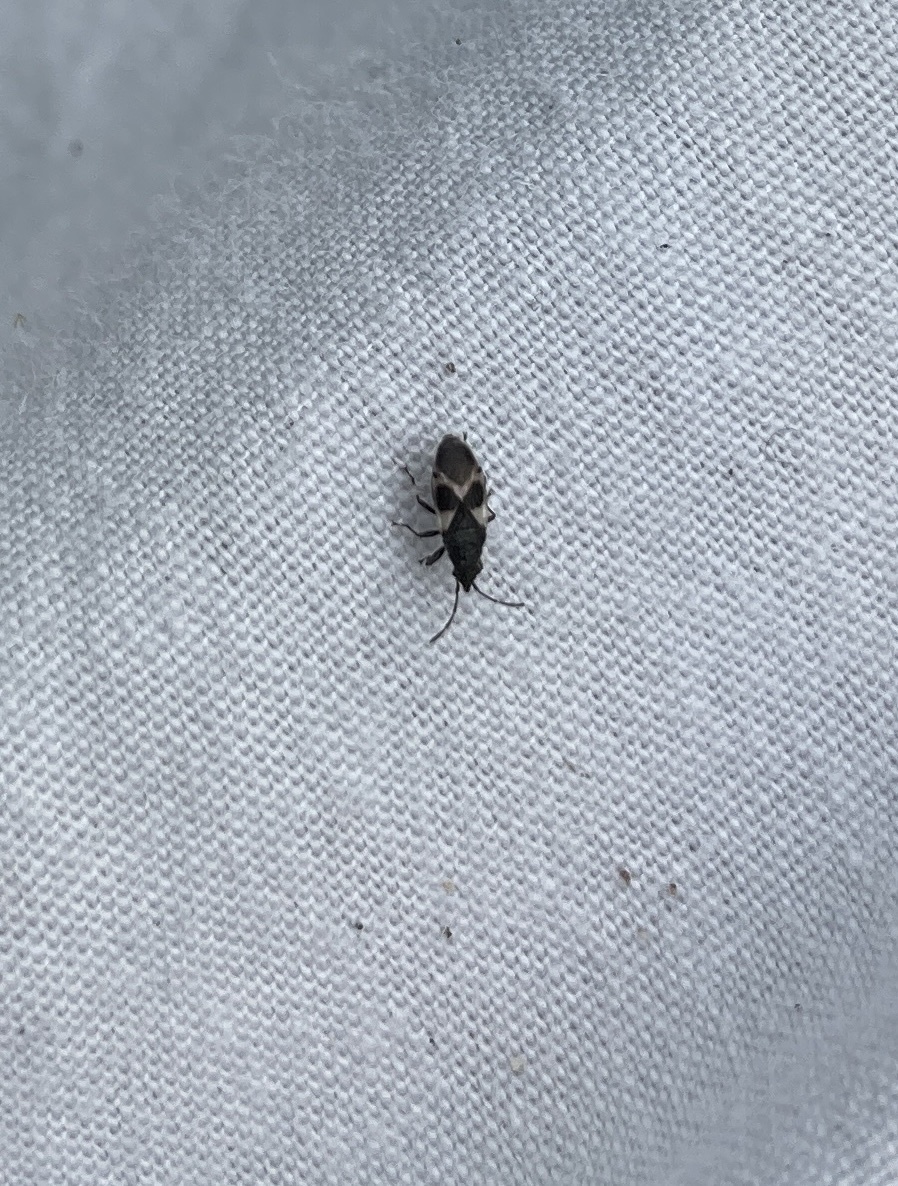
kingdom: Animalia
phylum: Arthropoda
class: Insecta
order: Hemiptera
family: Oxycarenidae
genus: Oxycarenus
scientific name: Oxycarenus luctuosus
